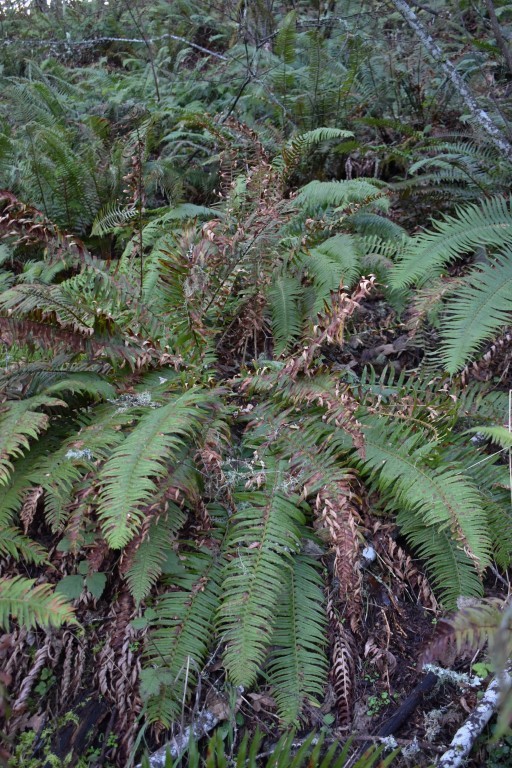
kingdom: Plantae
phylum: Tracheophyta
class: Polypodiopsida
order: Polypodiales
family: Dryopteridaceae
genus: Polystichum
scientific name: Polystichum munitum
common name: Western sword-fern
